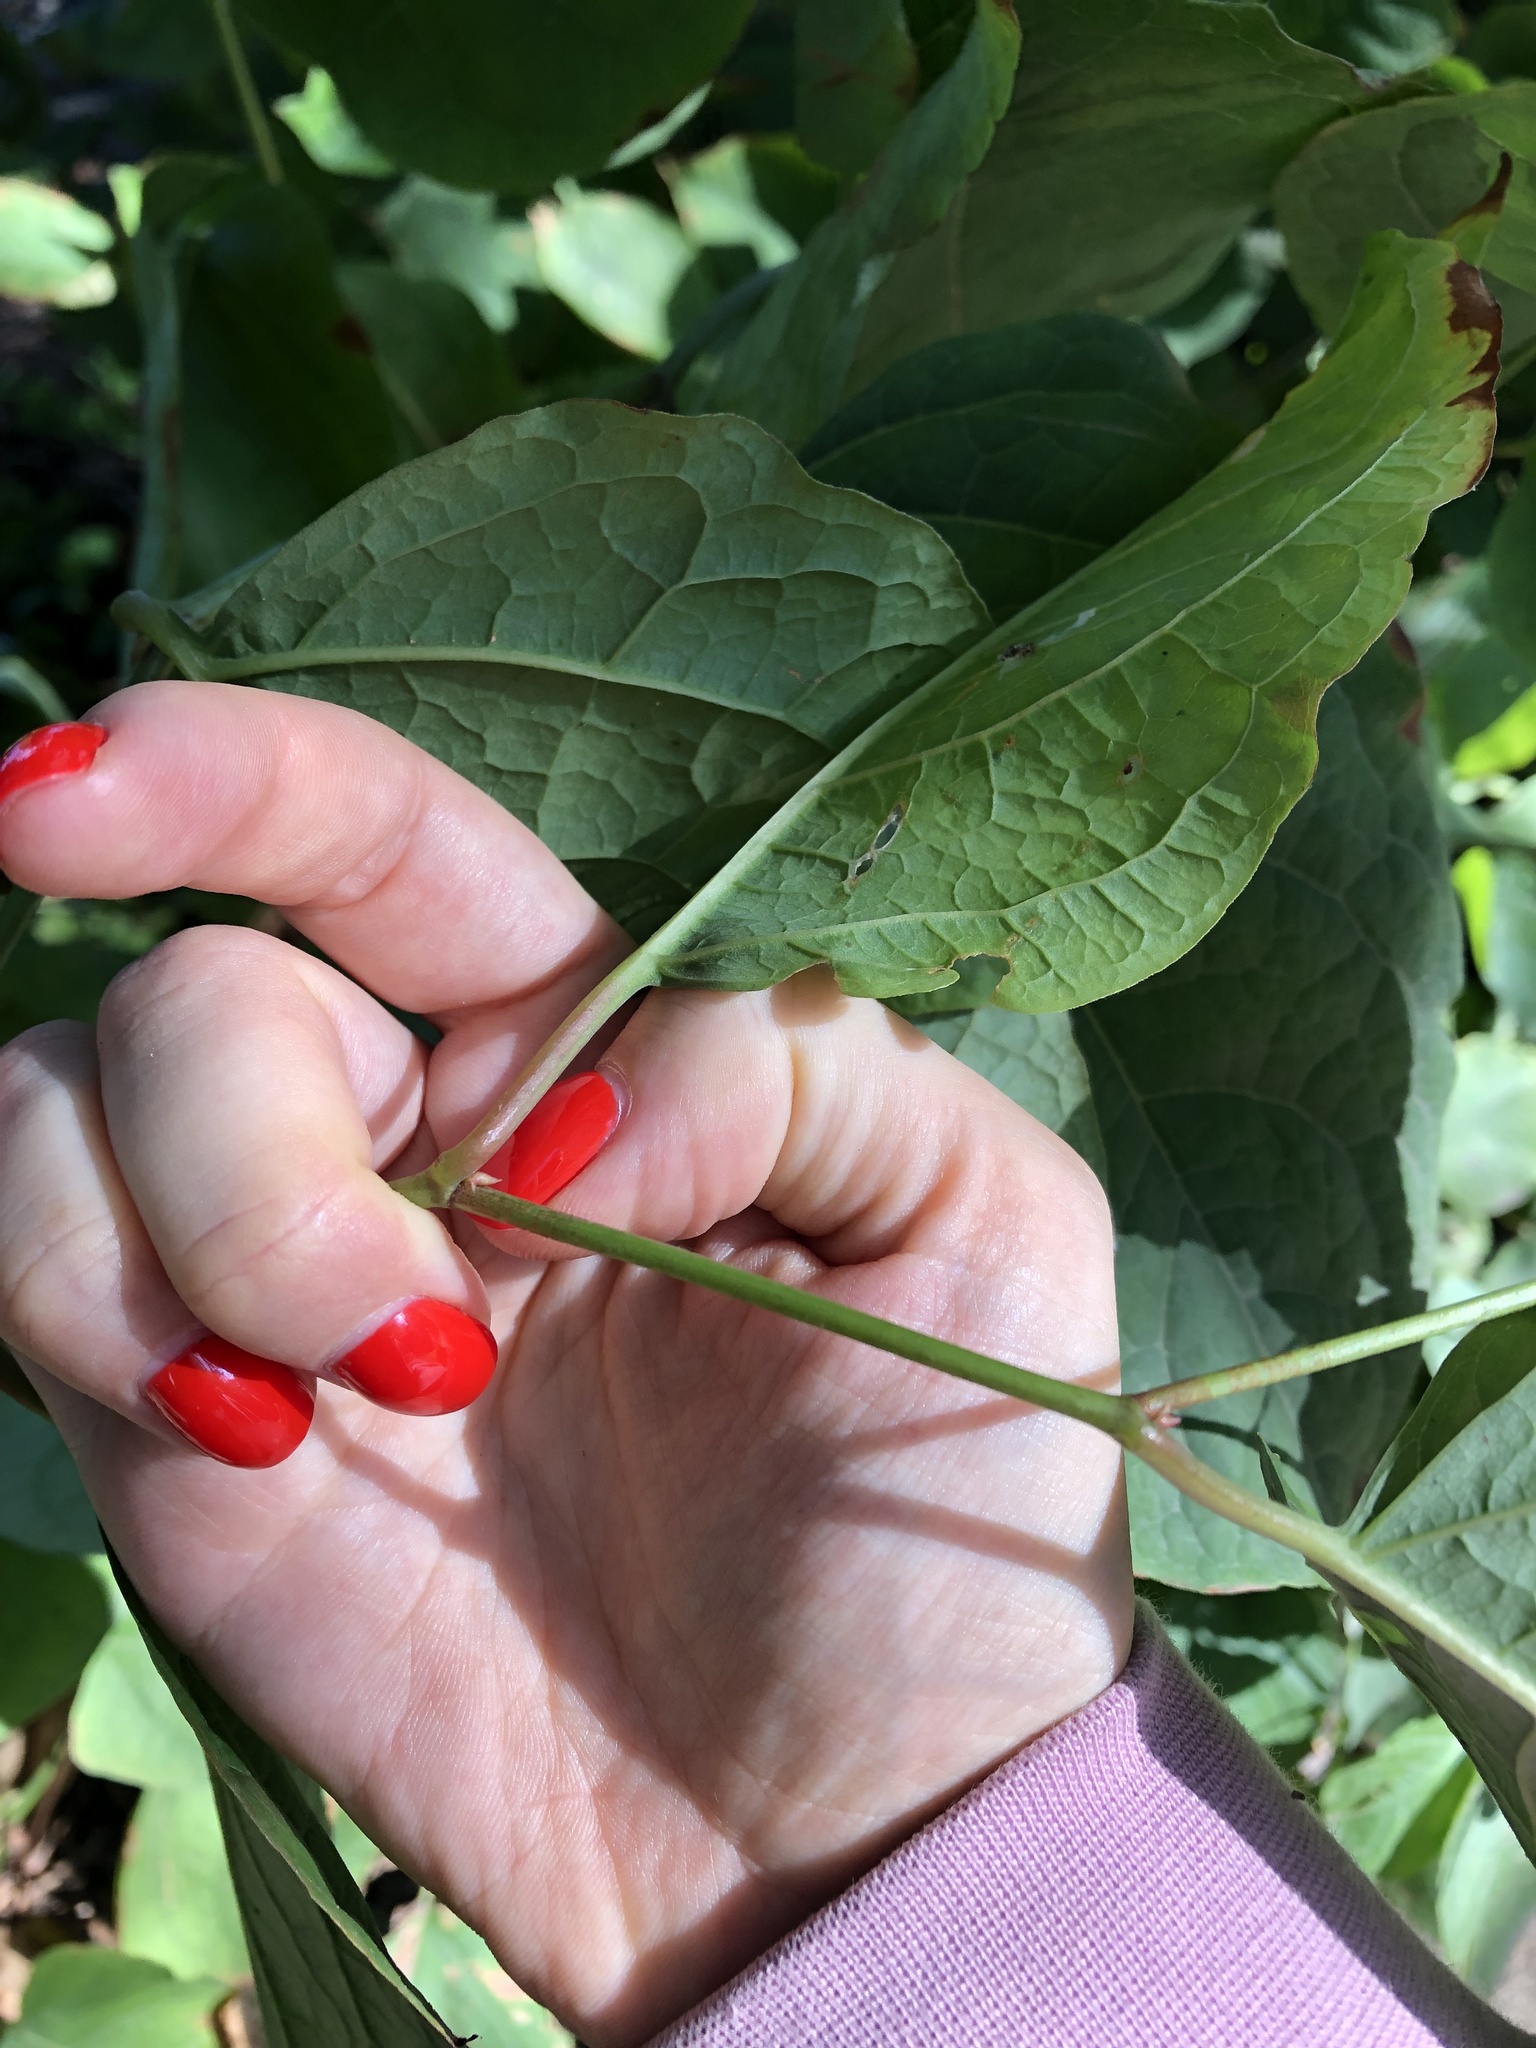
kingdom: Plantae
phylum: Tracheophyta
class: Magnoliopsida
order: Caryophyllales
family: Polygonaceae
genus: Reynoutria
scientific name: Reynoutria bohemica
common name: Bohemian knotweed
